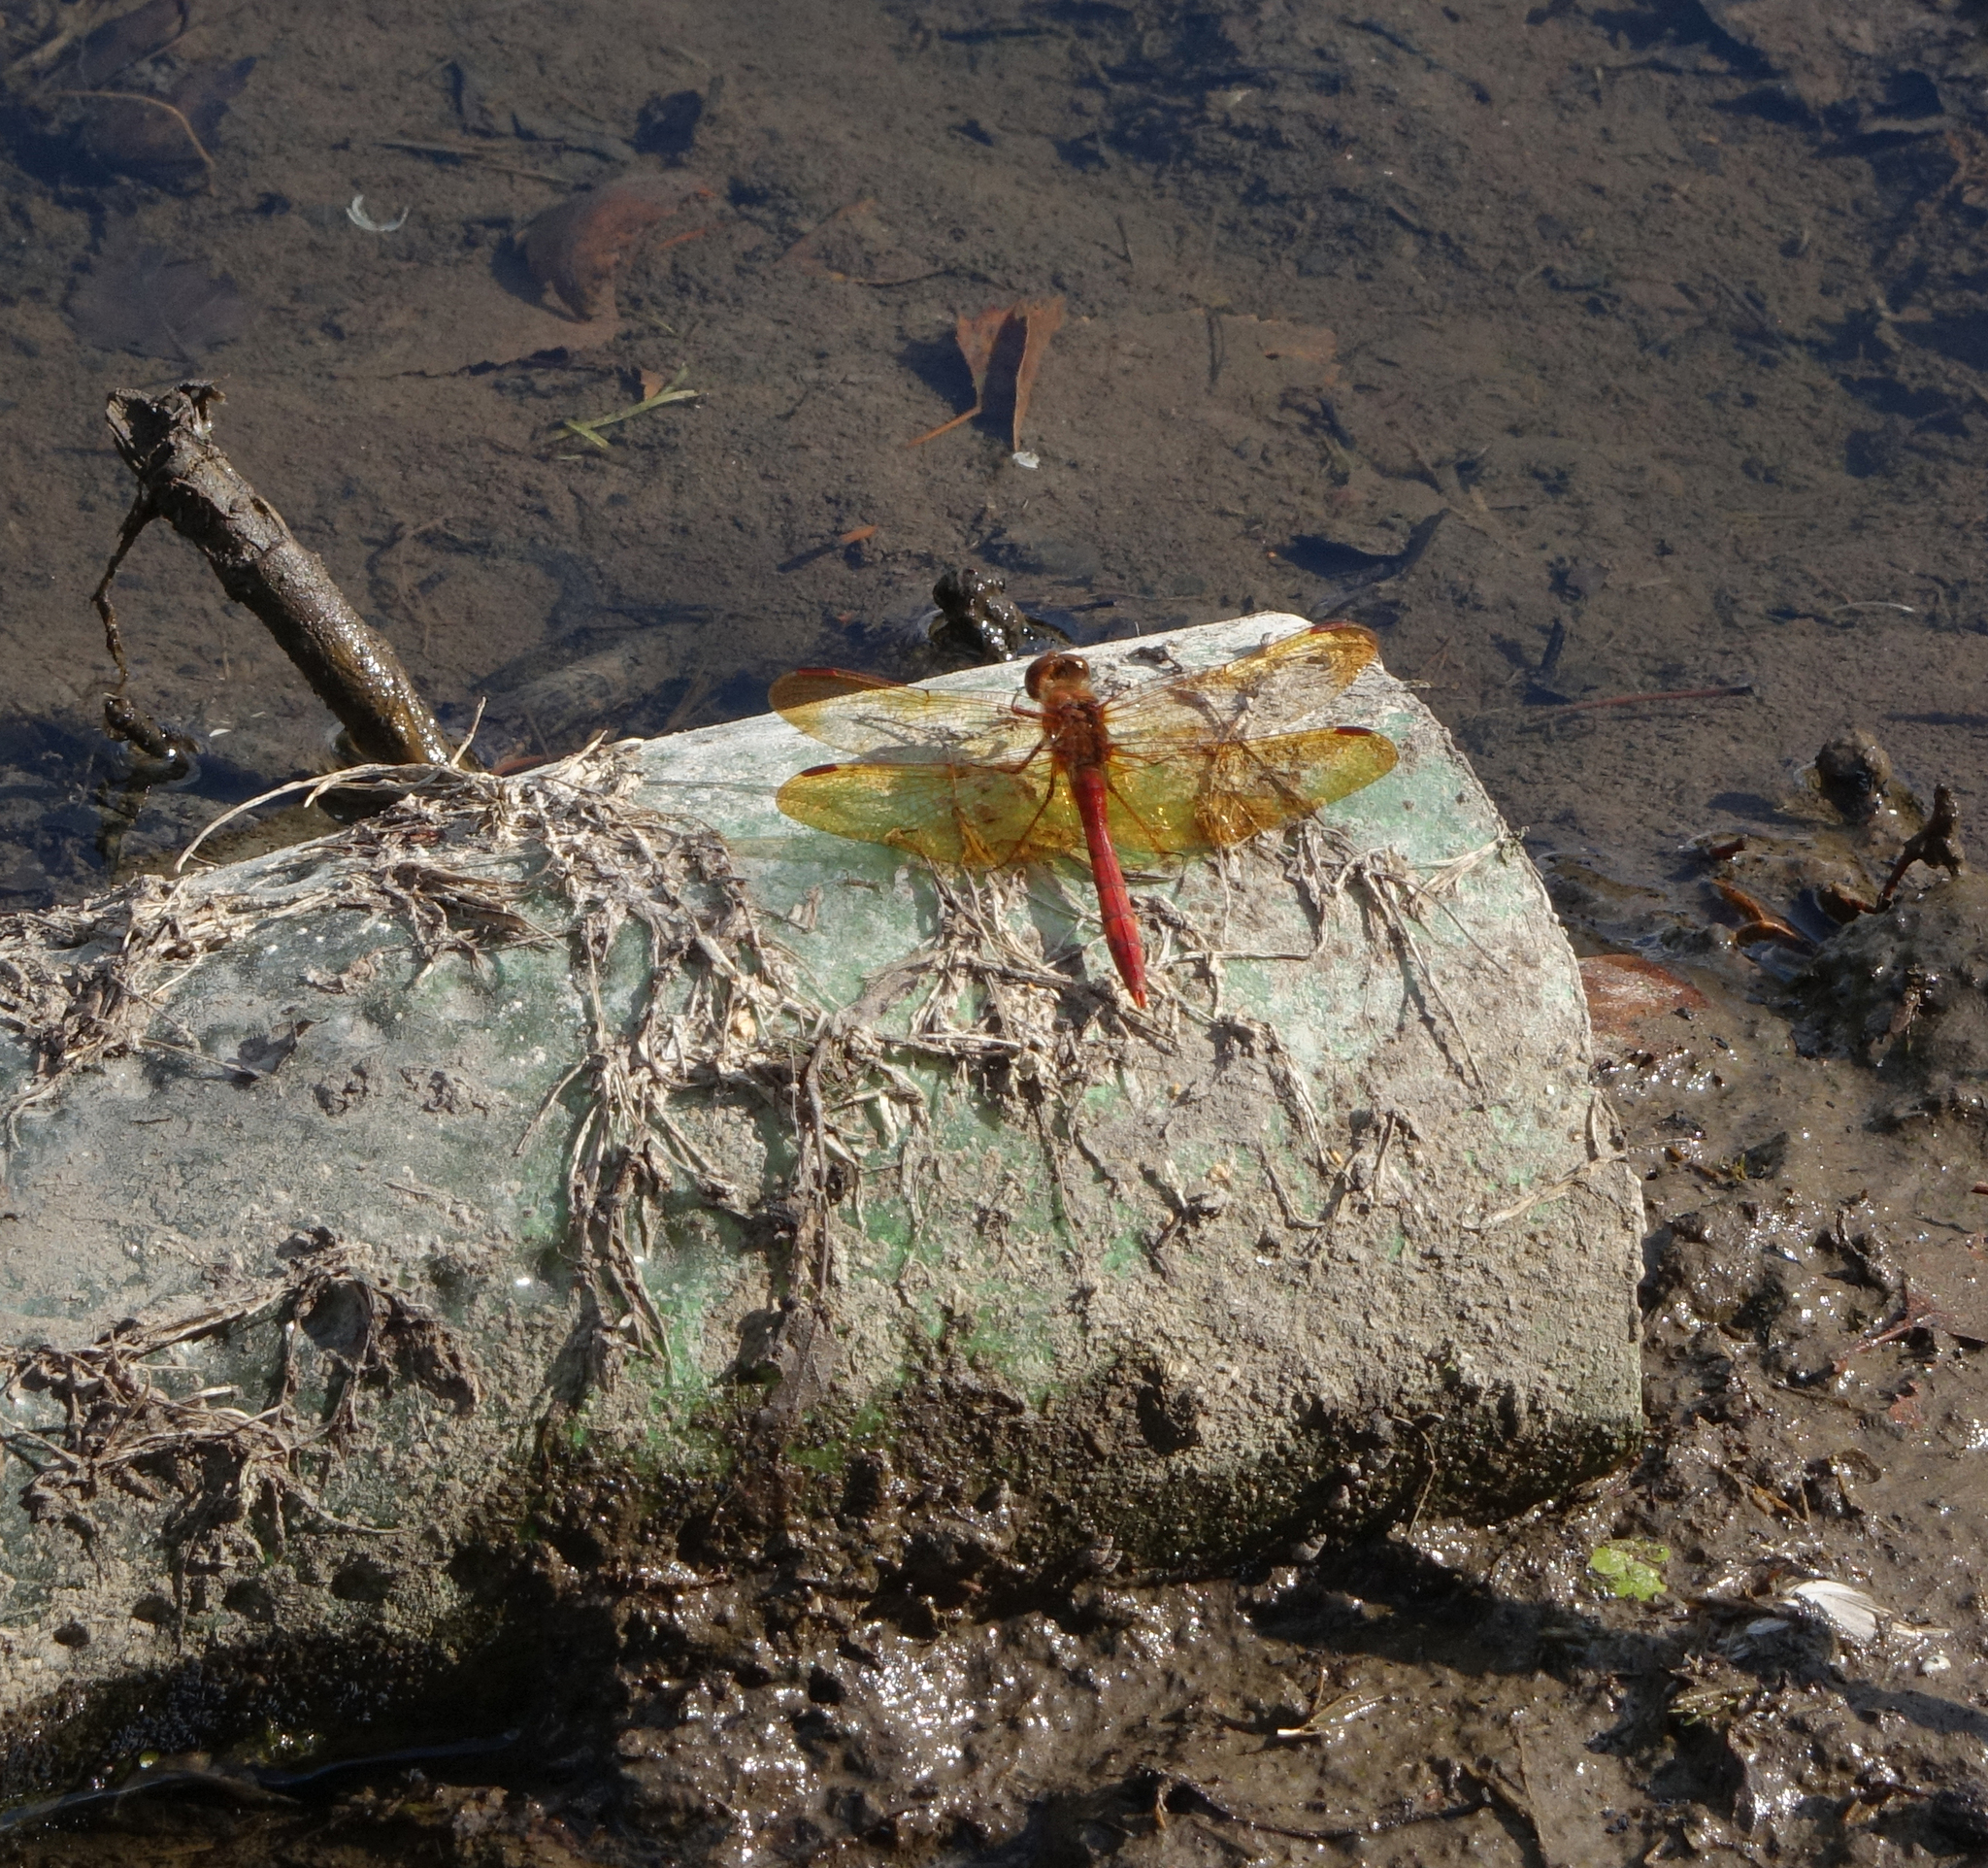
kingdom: Animalia
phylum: Arthropoda
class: Insecta
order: Odonata
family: Libellulidae
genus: Sympetrum
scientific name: Sympetrum croceolum
